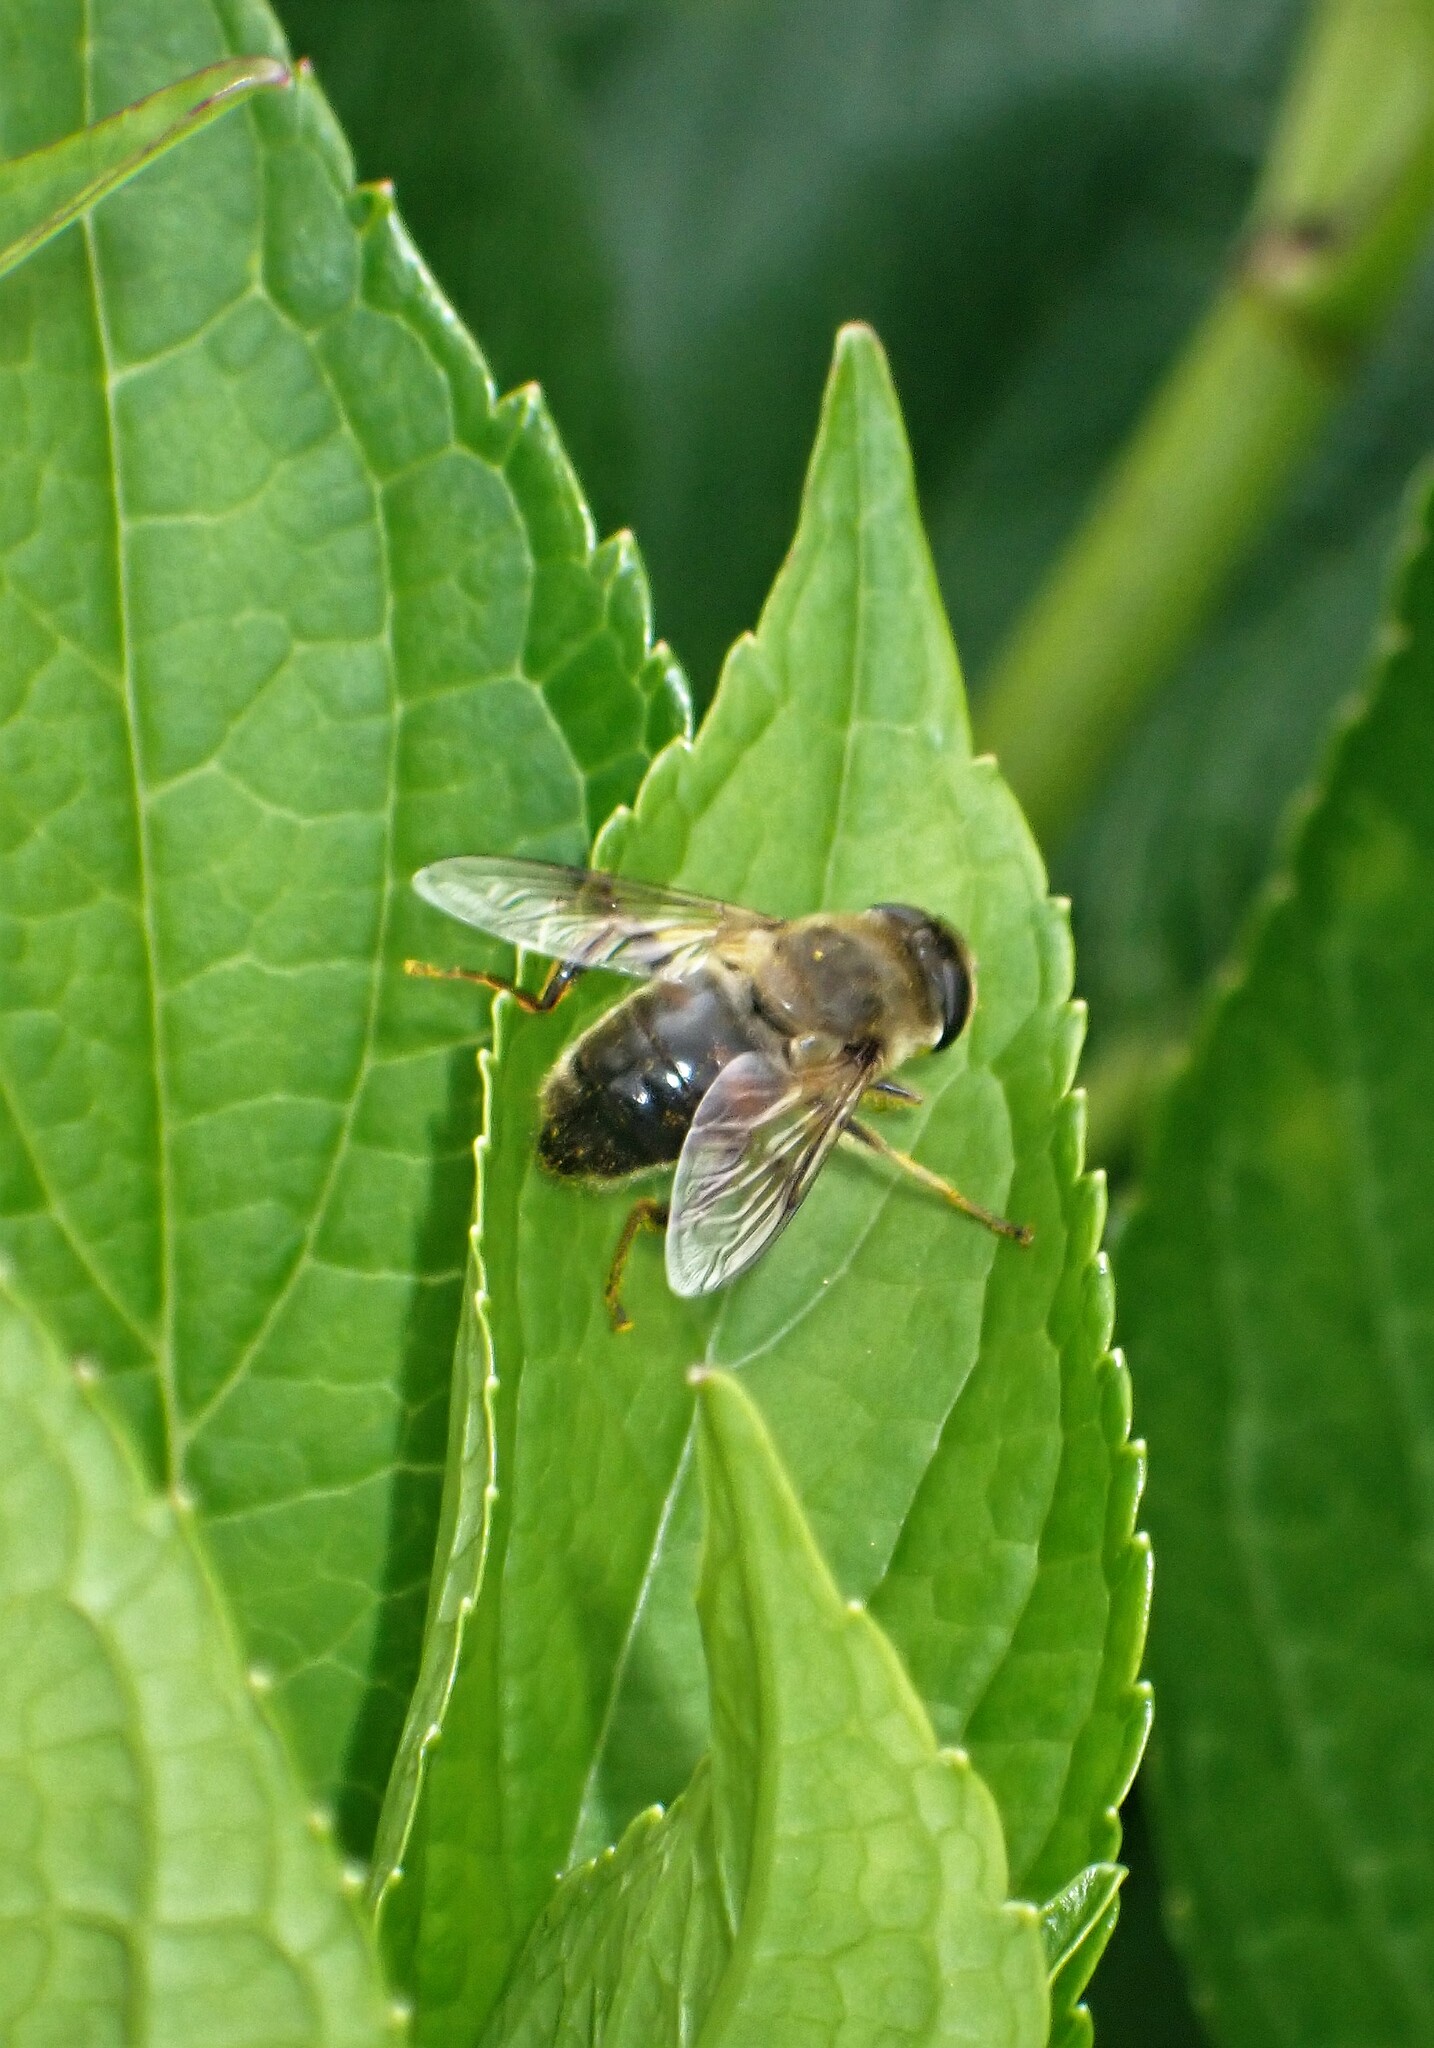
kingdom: Animalia
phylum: Arthropoda
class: Insecta
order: Diptera
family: Syrphidae
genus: Eristalis
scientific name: Eristalis tenax
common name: Drone fly
